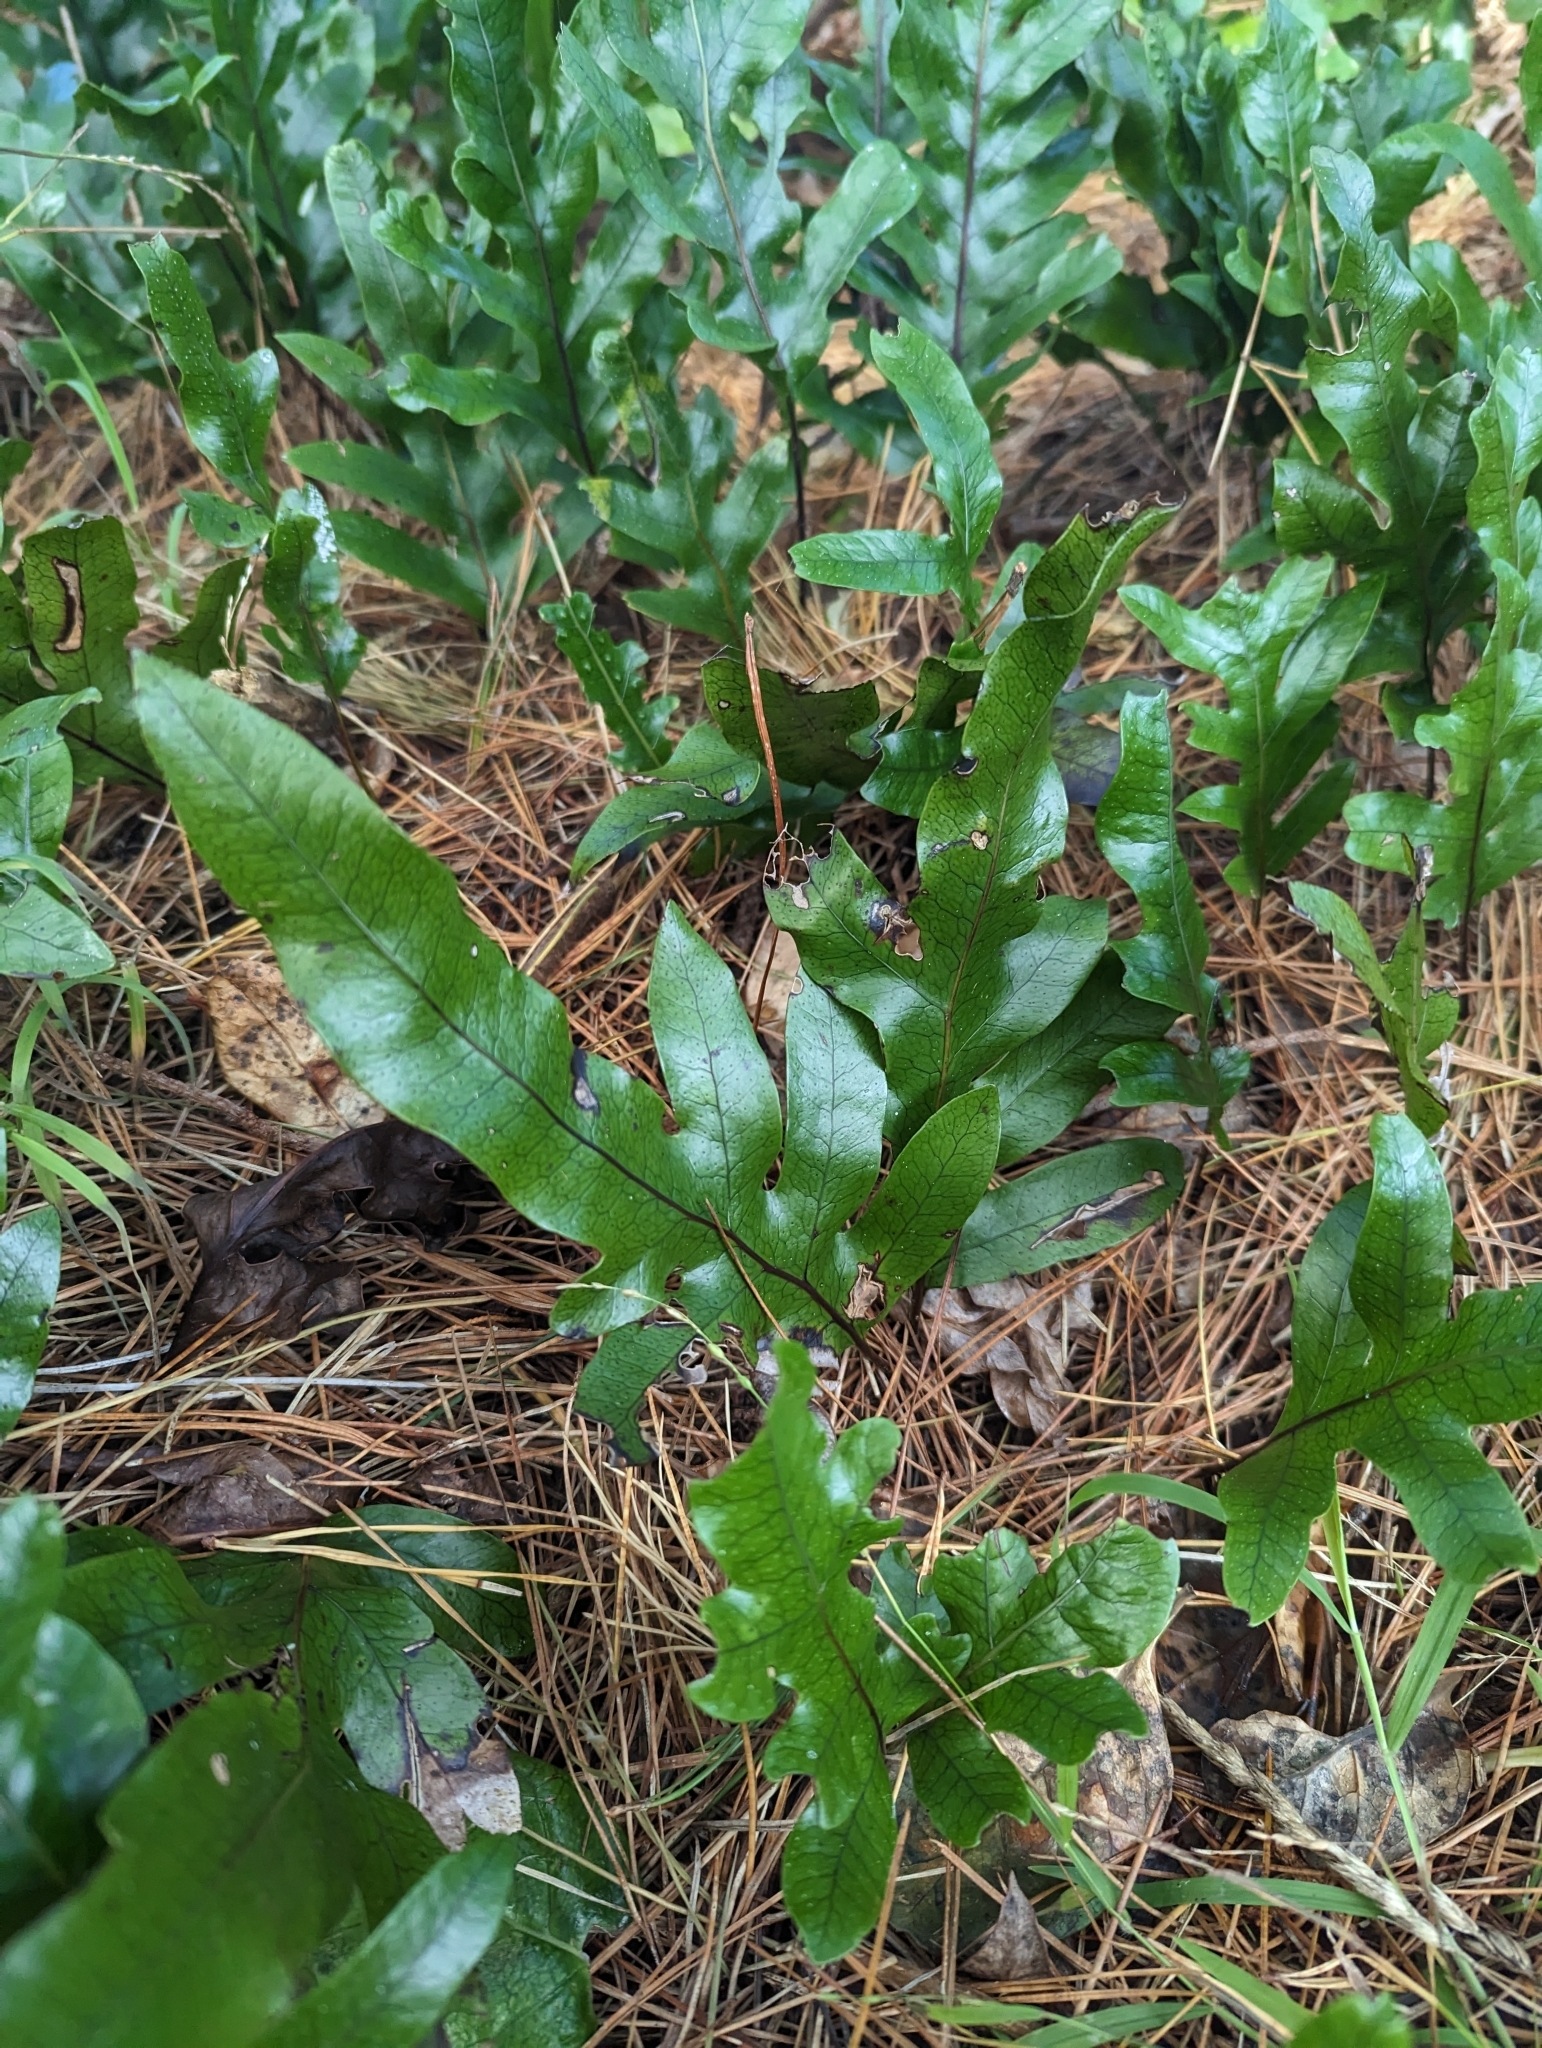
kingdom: Plantae
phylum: Tracheophyta
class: Polypodiopsida
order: Polypodiales
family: Polypodiaceae
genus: Lecanopteris
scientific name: Lecanopteris pustulata
